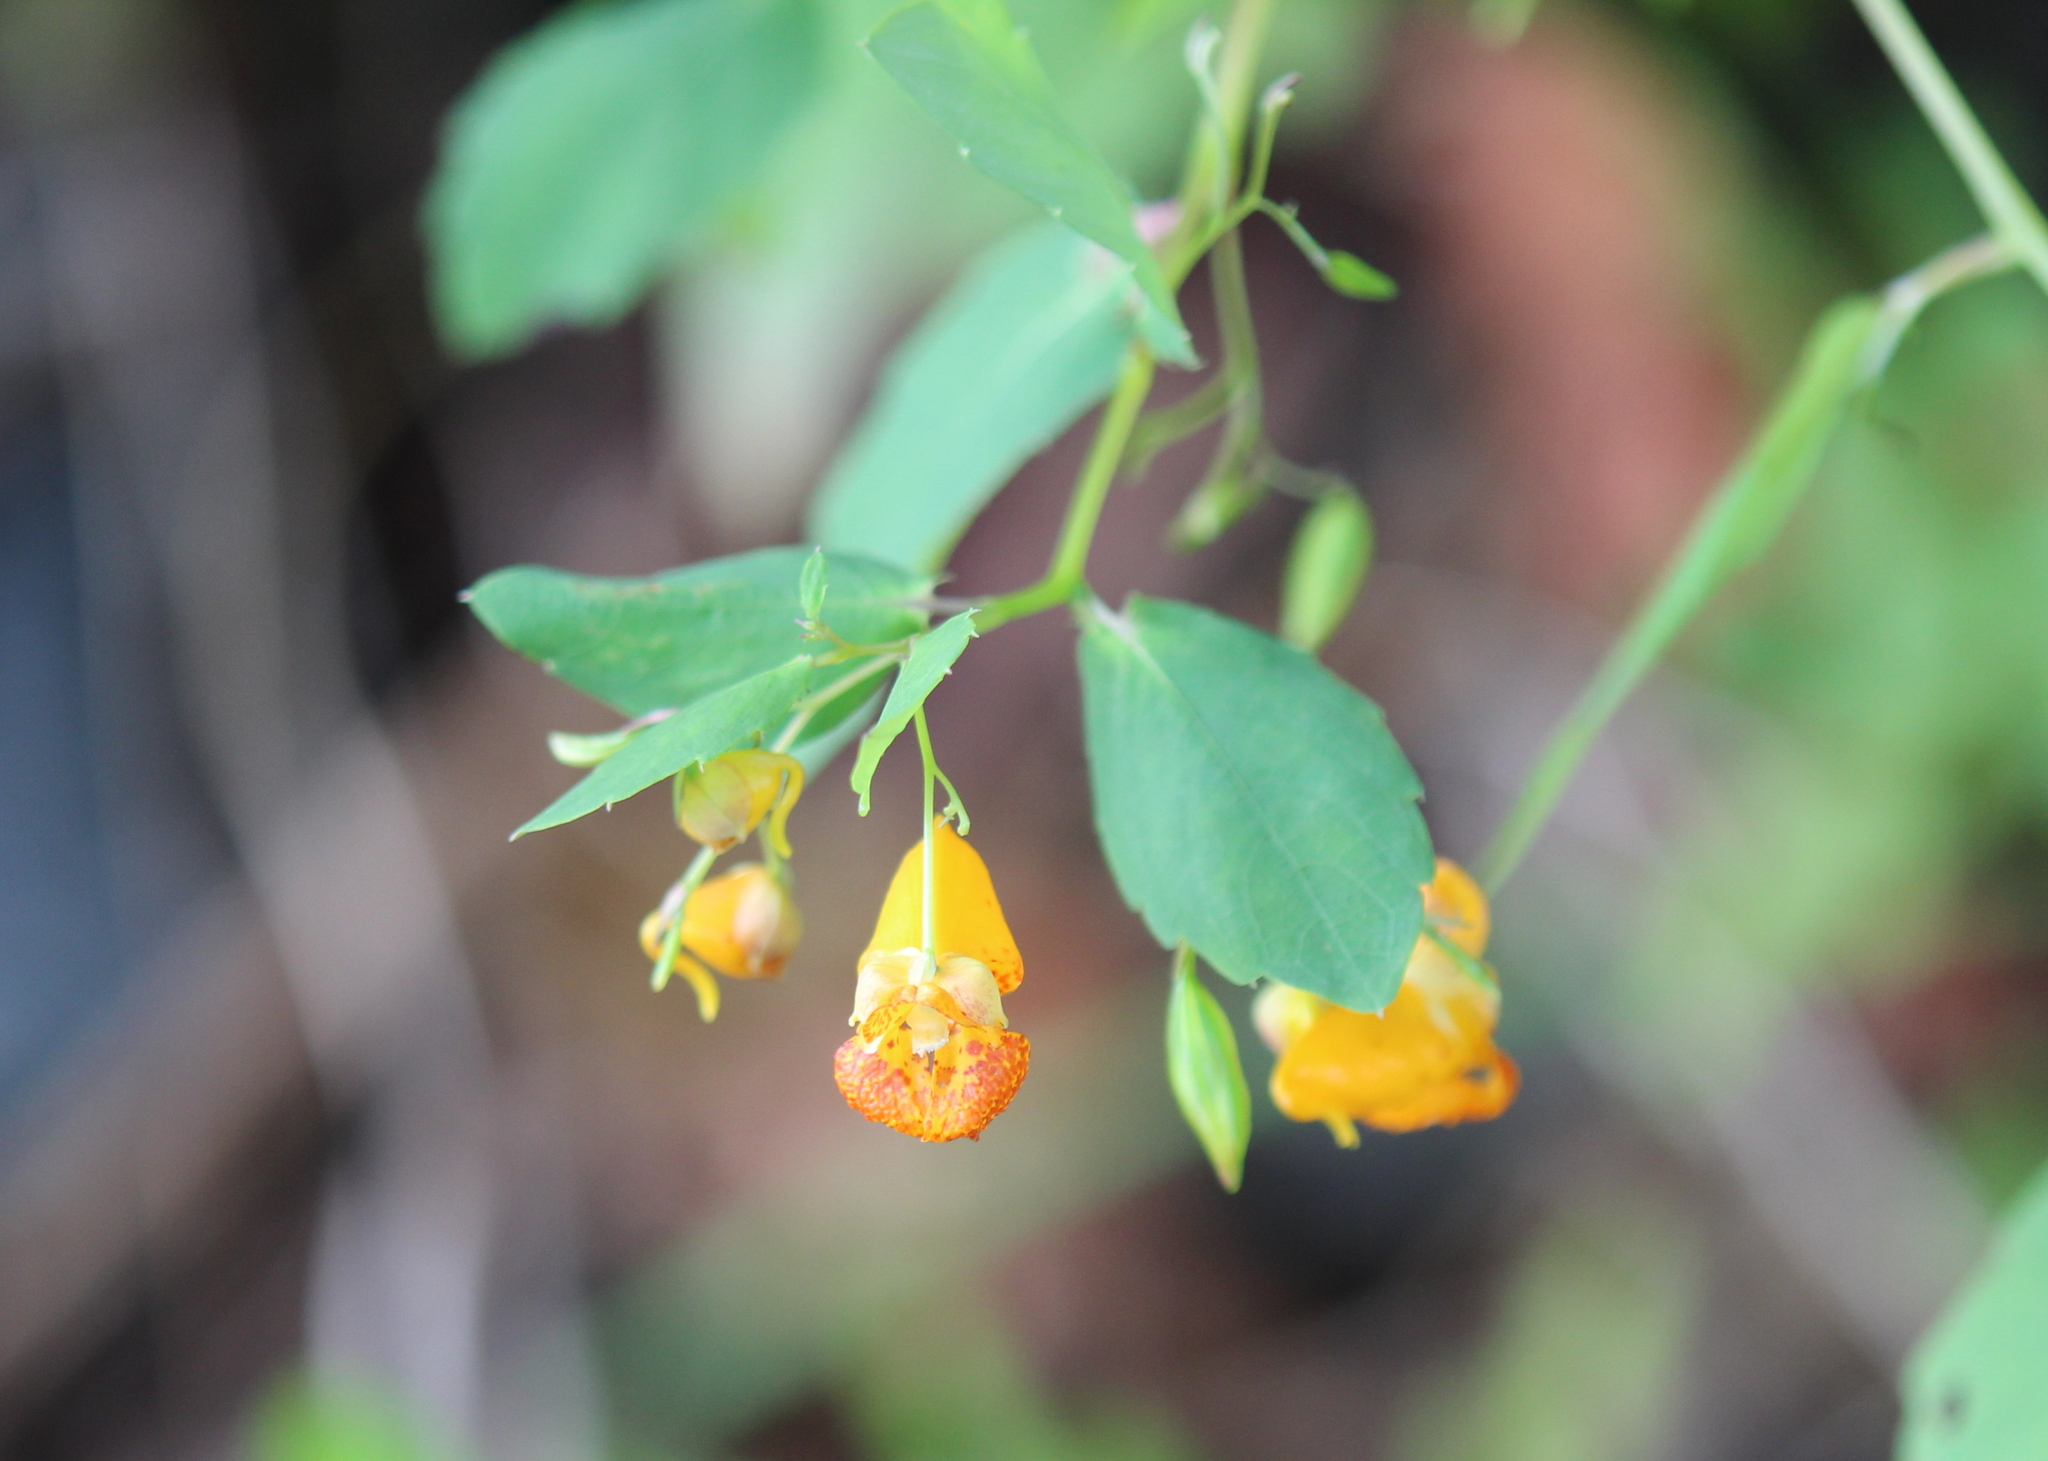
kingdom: Plantae
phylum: Tracheophyta
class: Magnoliopsida
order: Ericales
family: Balsaminaceae
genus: Impatiens
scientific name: Impatiens capensis
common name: Orange balsam
